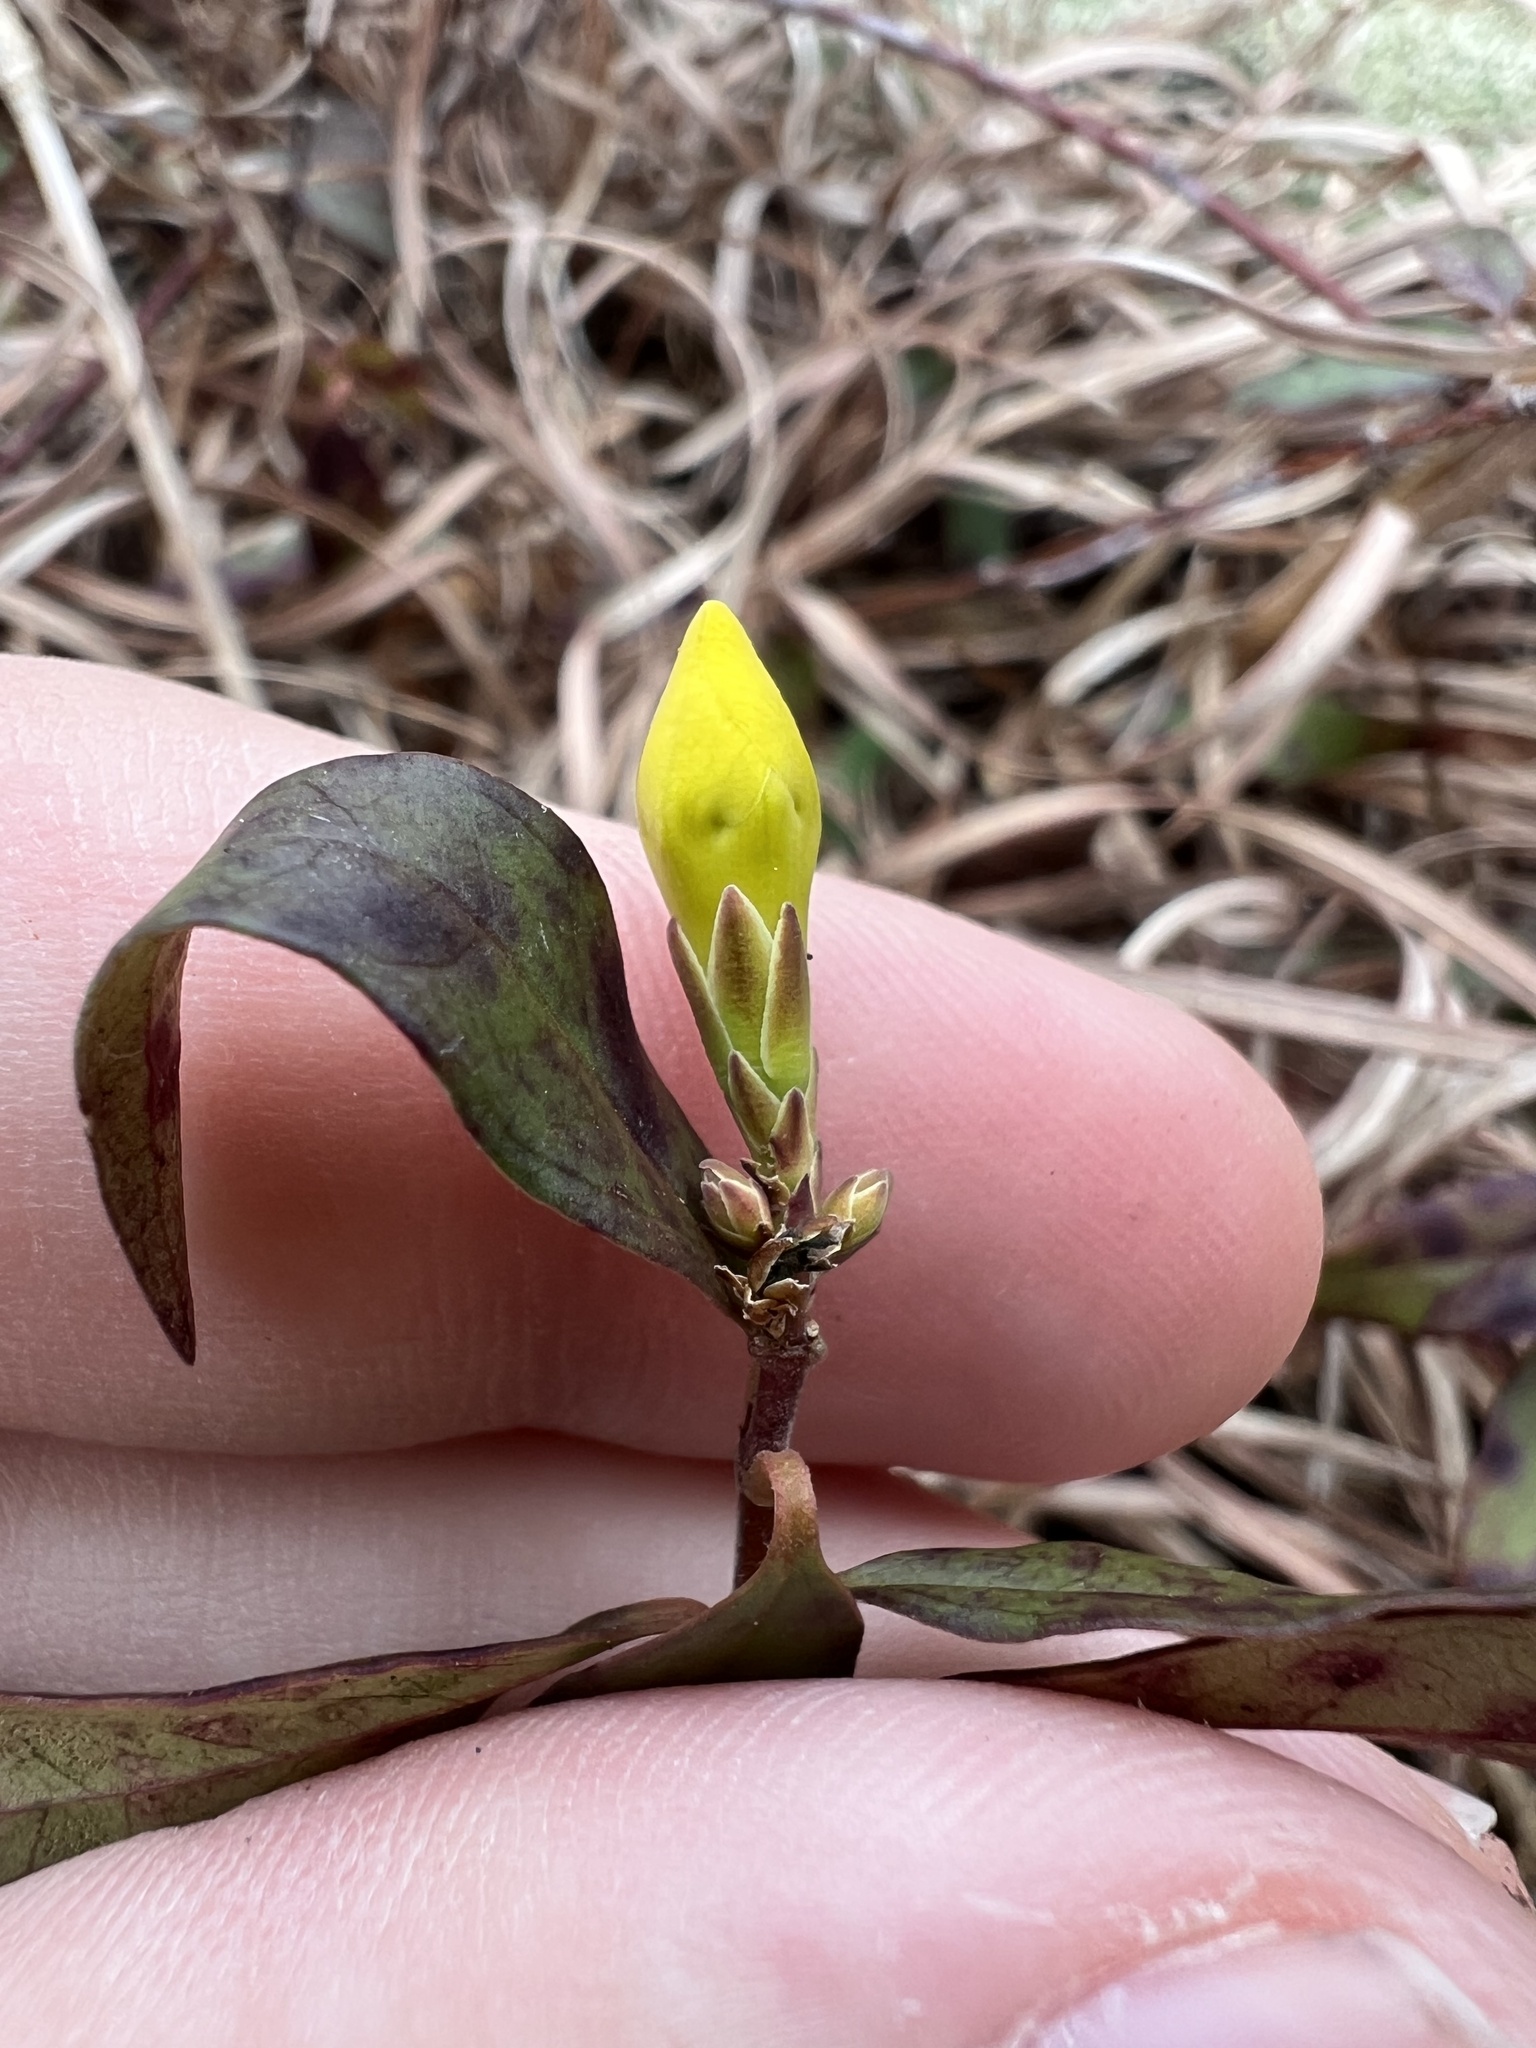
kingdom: Plantae
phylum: Tracheophyta
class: Magnoliopsida
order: Gentianales
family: Gelsemiaceae
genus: Gelsemium
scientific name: Gelsemium sempervirens
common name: Carolina-jasmine
